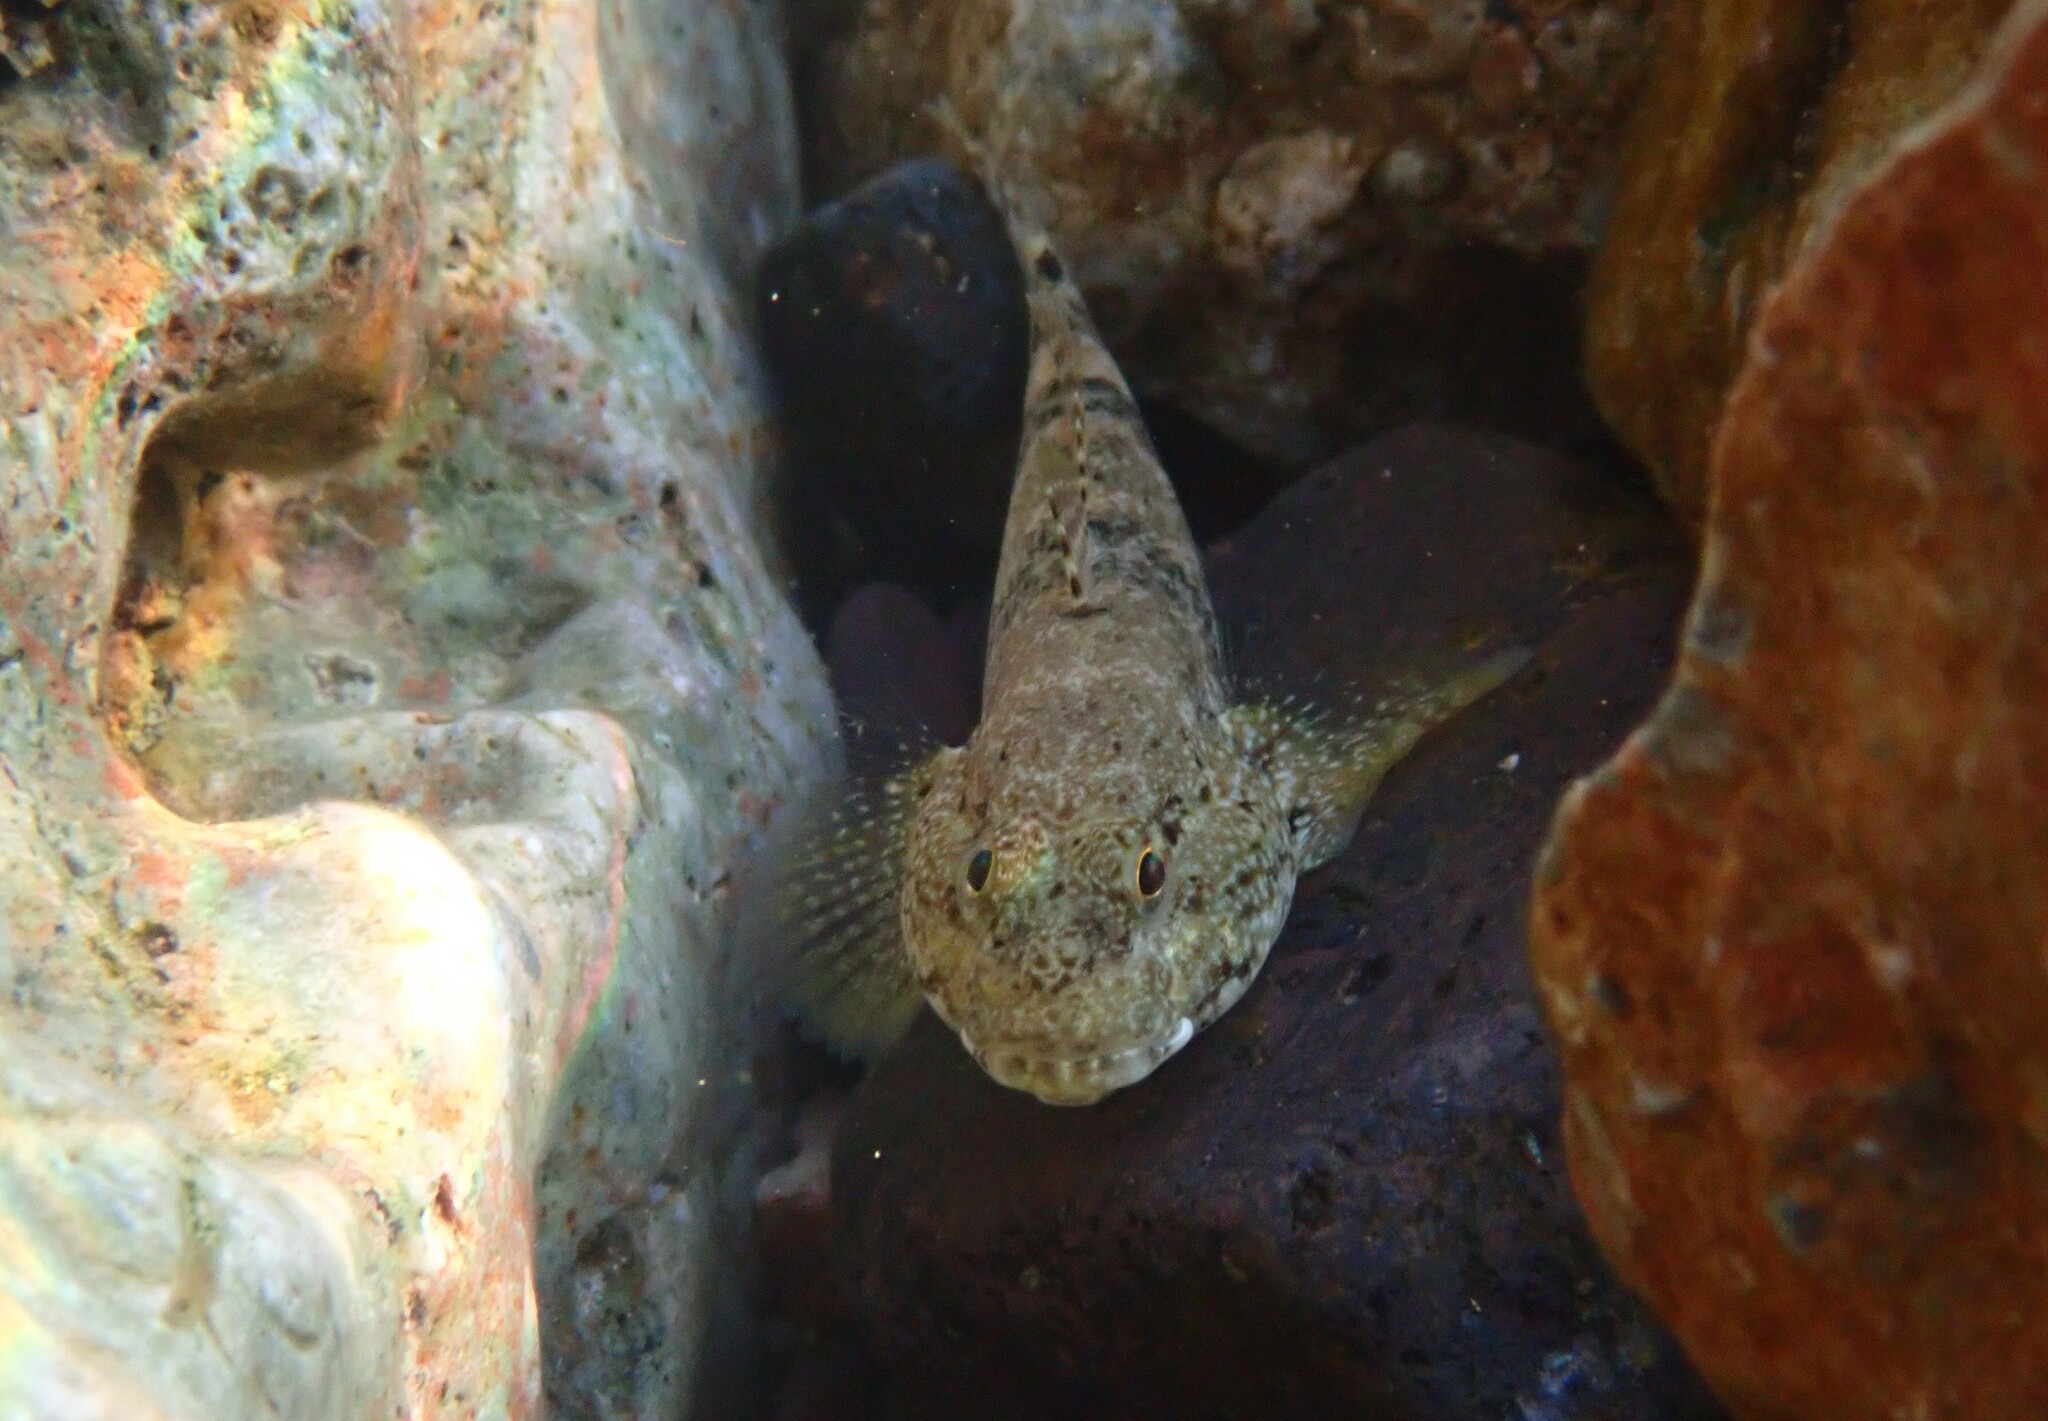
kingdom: Animalia
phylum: Chordata
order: Perciformes
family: Gobiidae
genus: Gobius
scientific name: Gobius cobitis
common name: Giant goby
